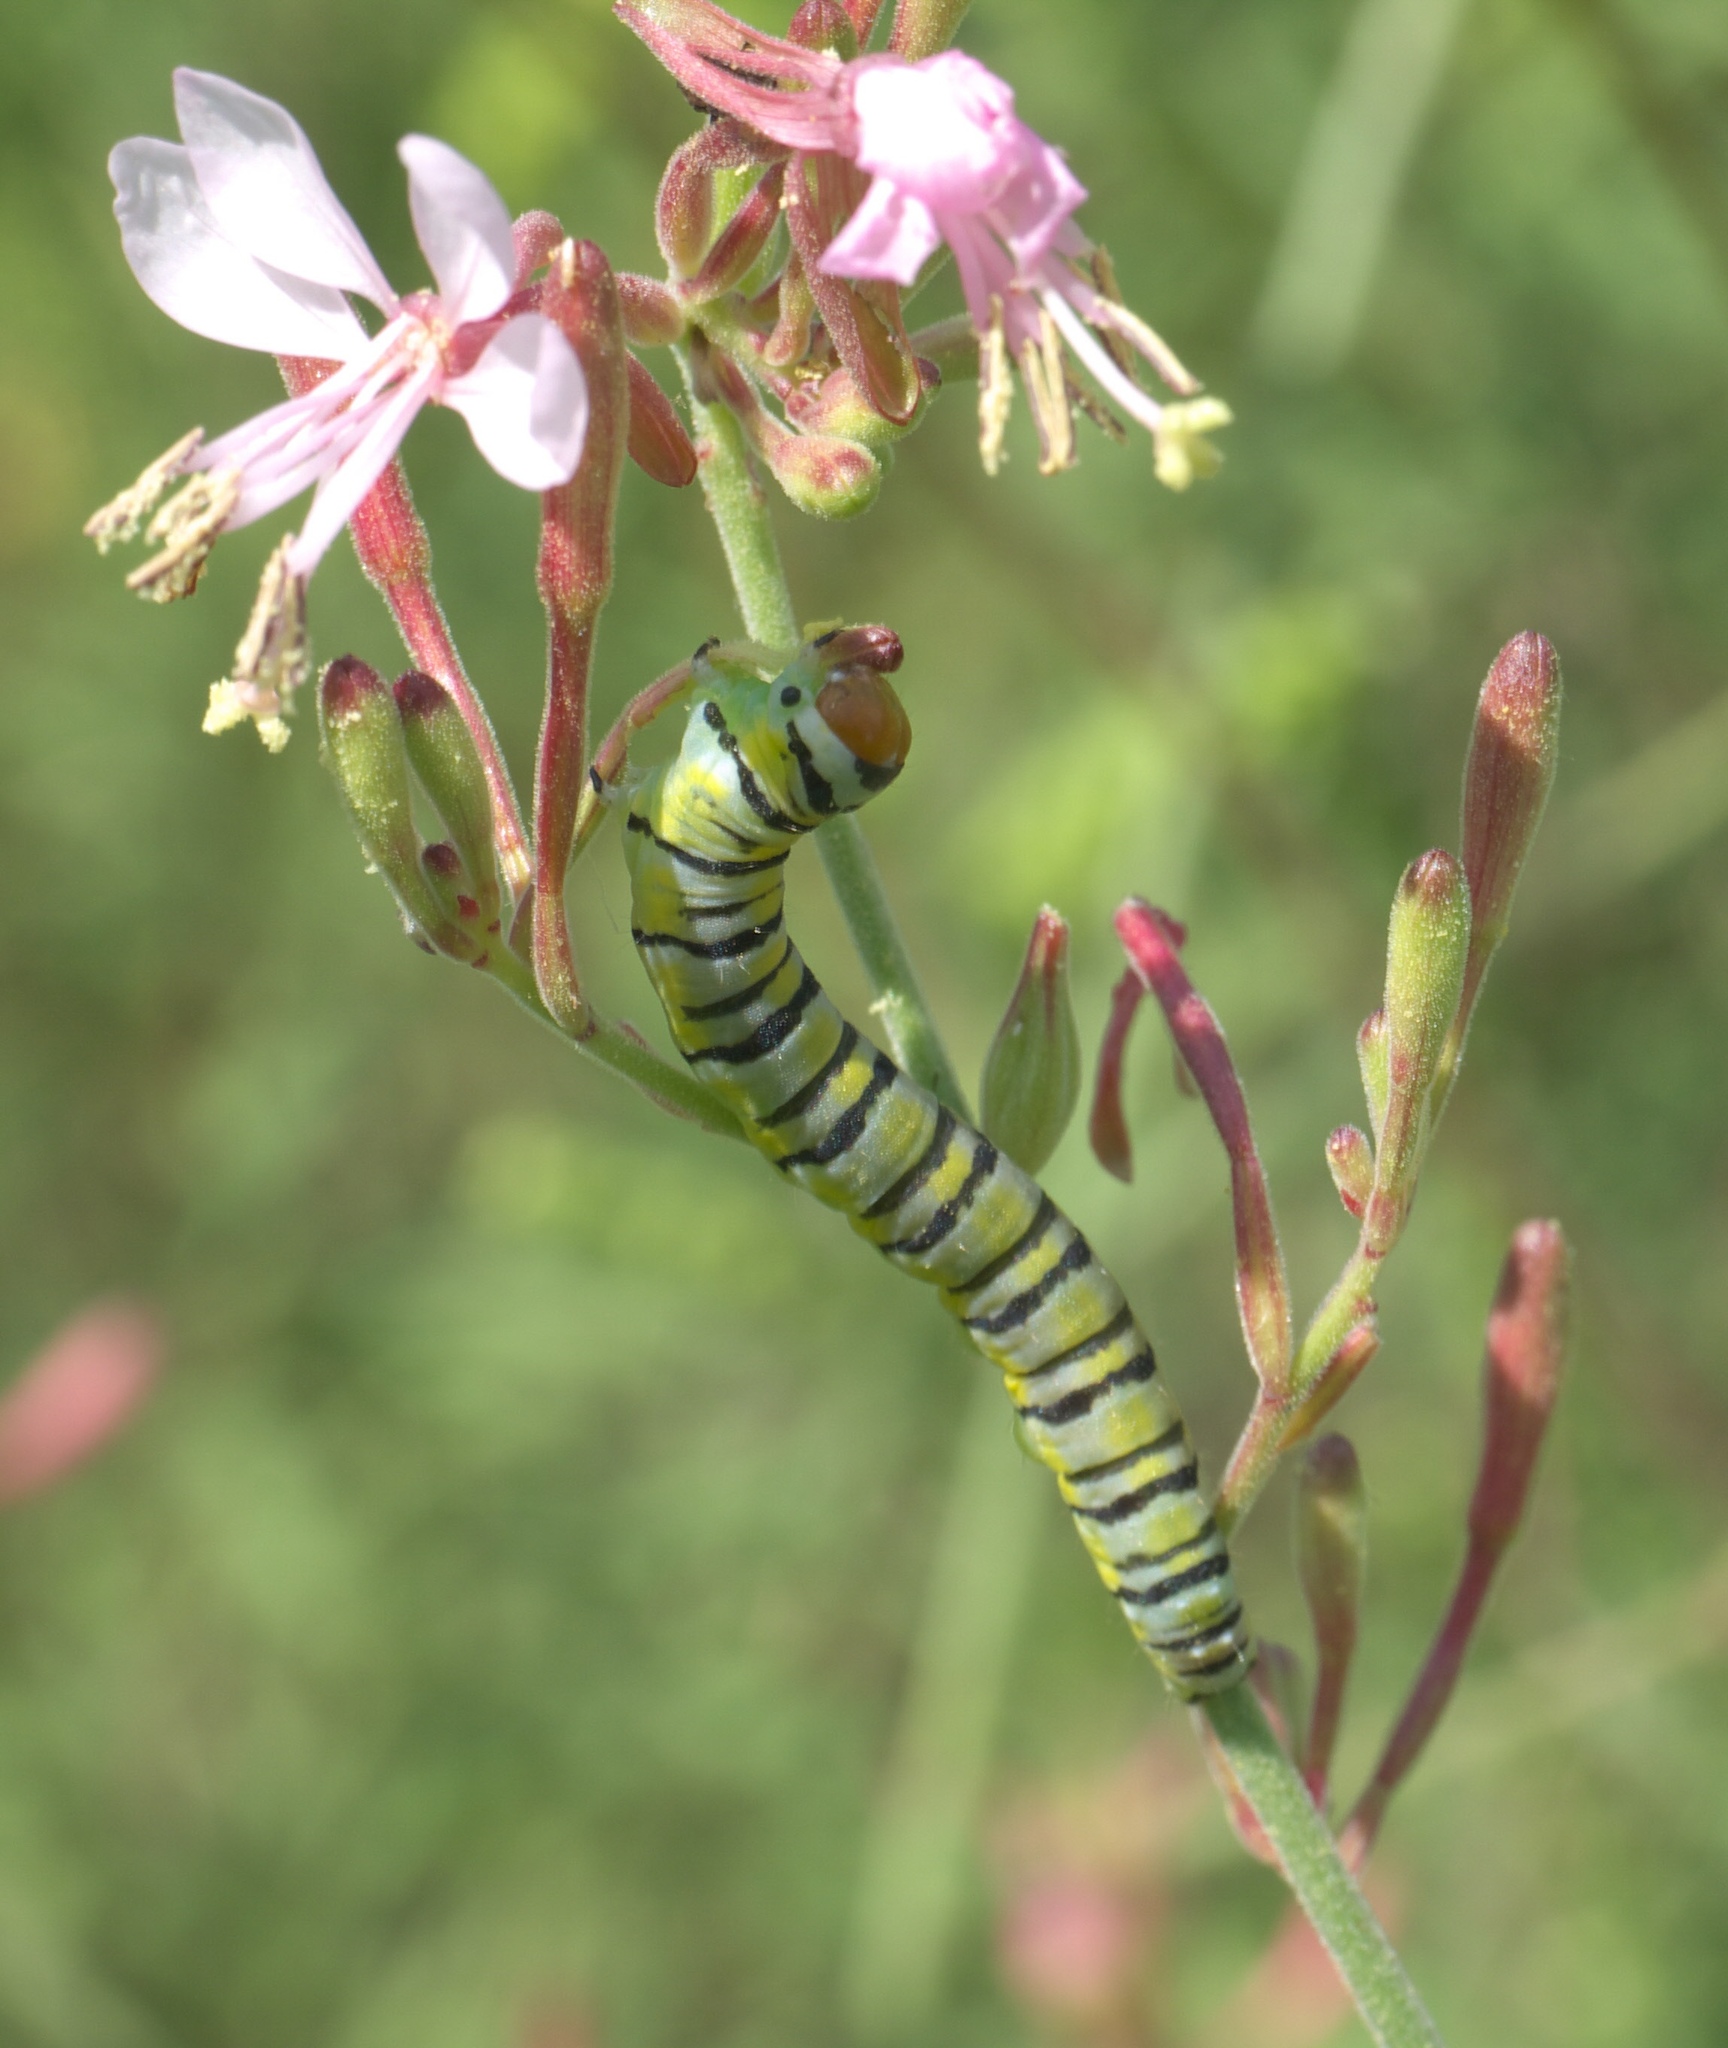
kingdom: Animalia
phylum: Arthropoda
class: Insecta
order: Lepidoptera
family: Noctuidae
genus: Schinia
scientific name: Schinia gaurae
